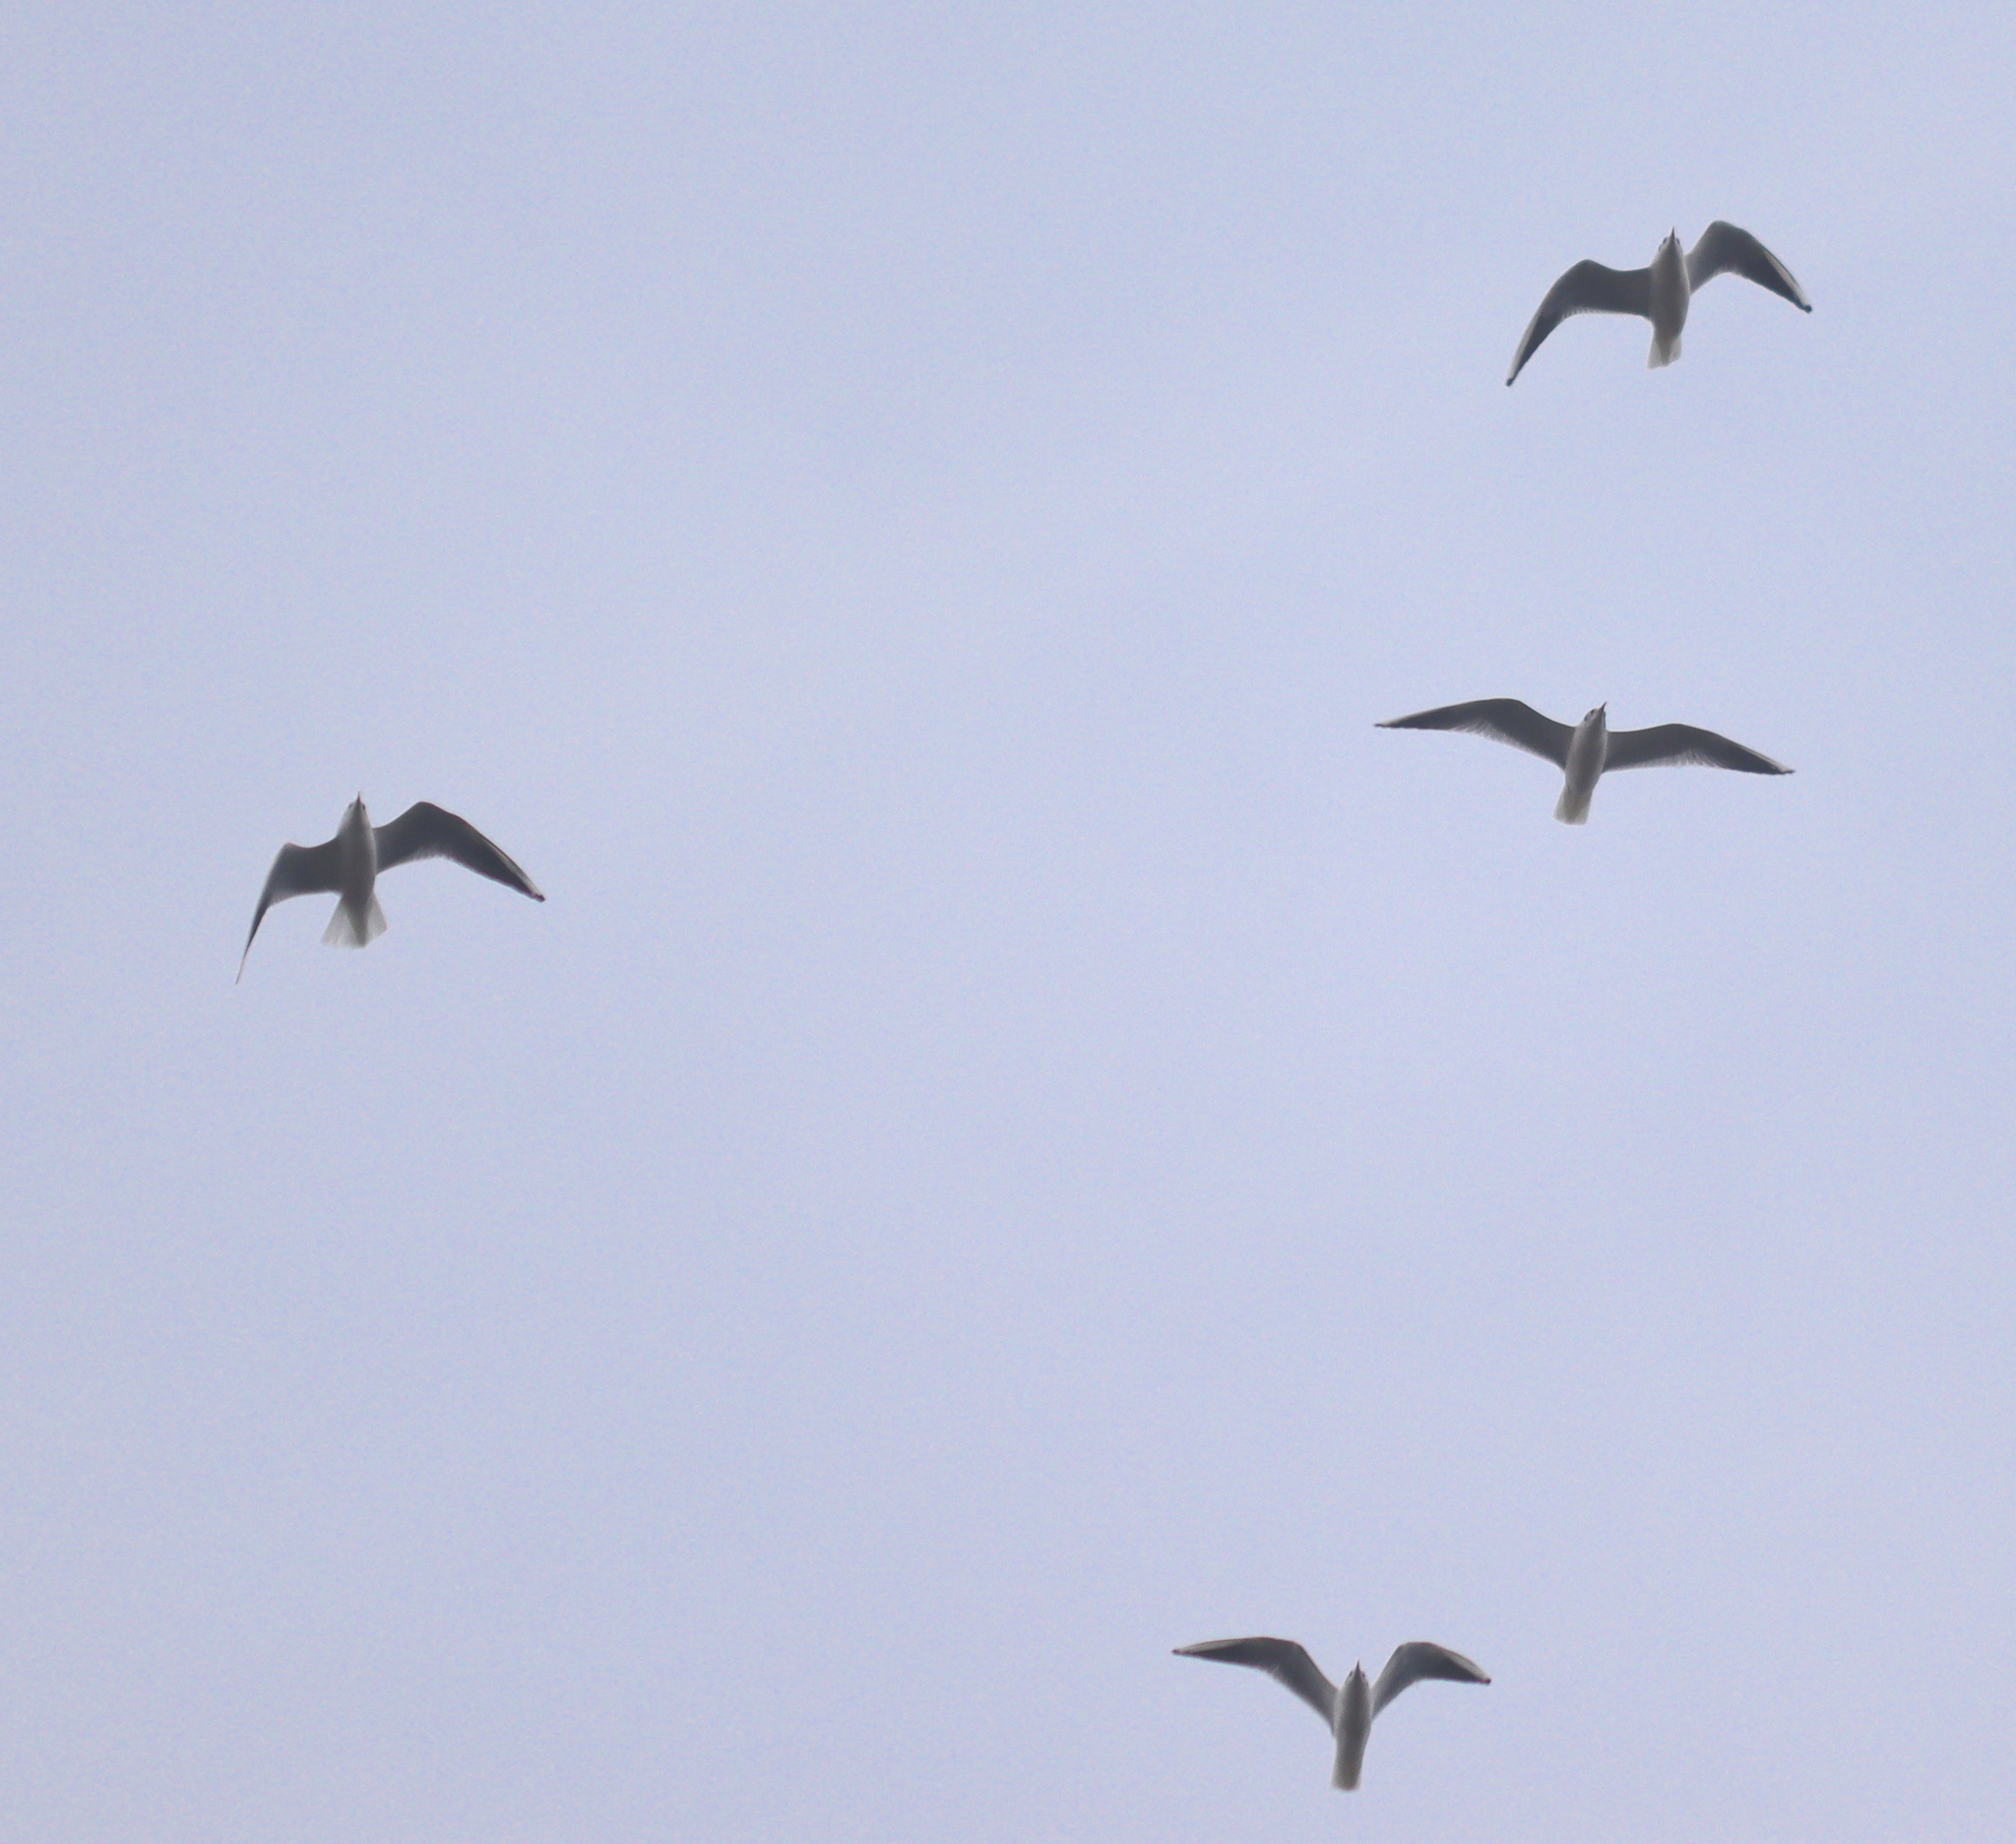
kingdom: Animalia
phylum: Chordata
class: Aves
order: Charadriiformes
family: Laridae
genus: Chroicocephalus
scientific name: Chroicocephalus ridibundus
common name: Black-headed gull
